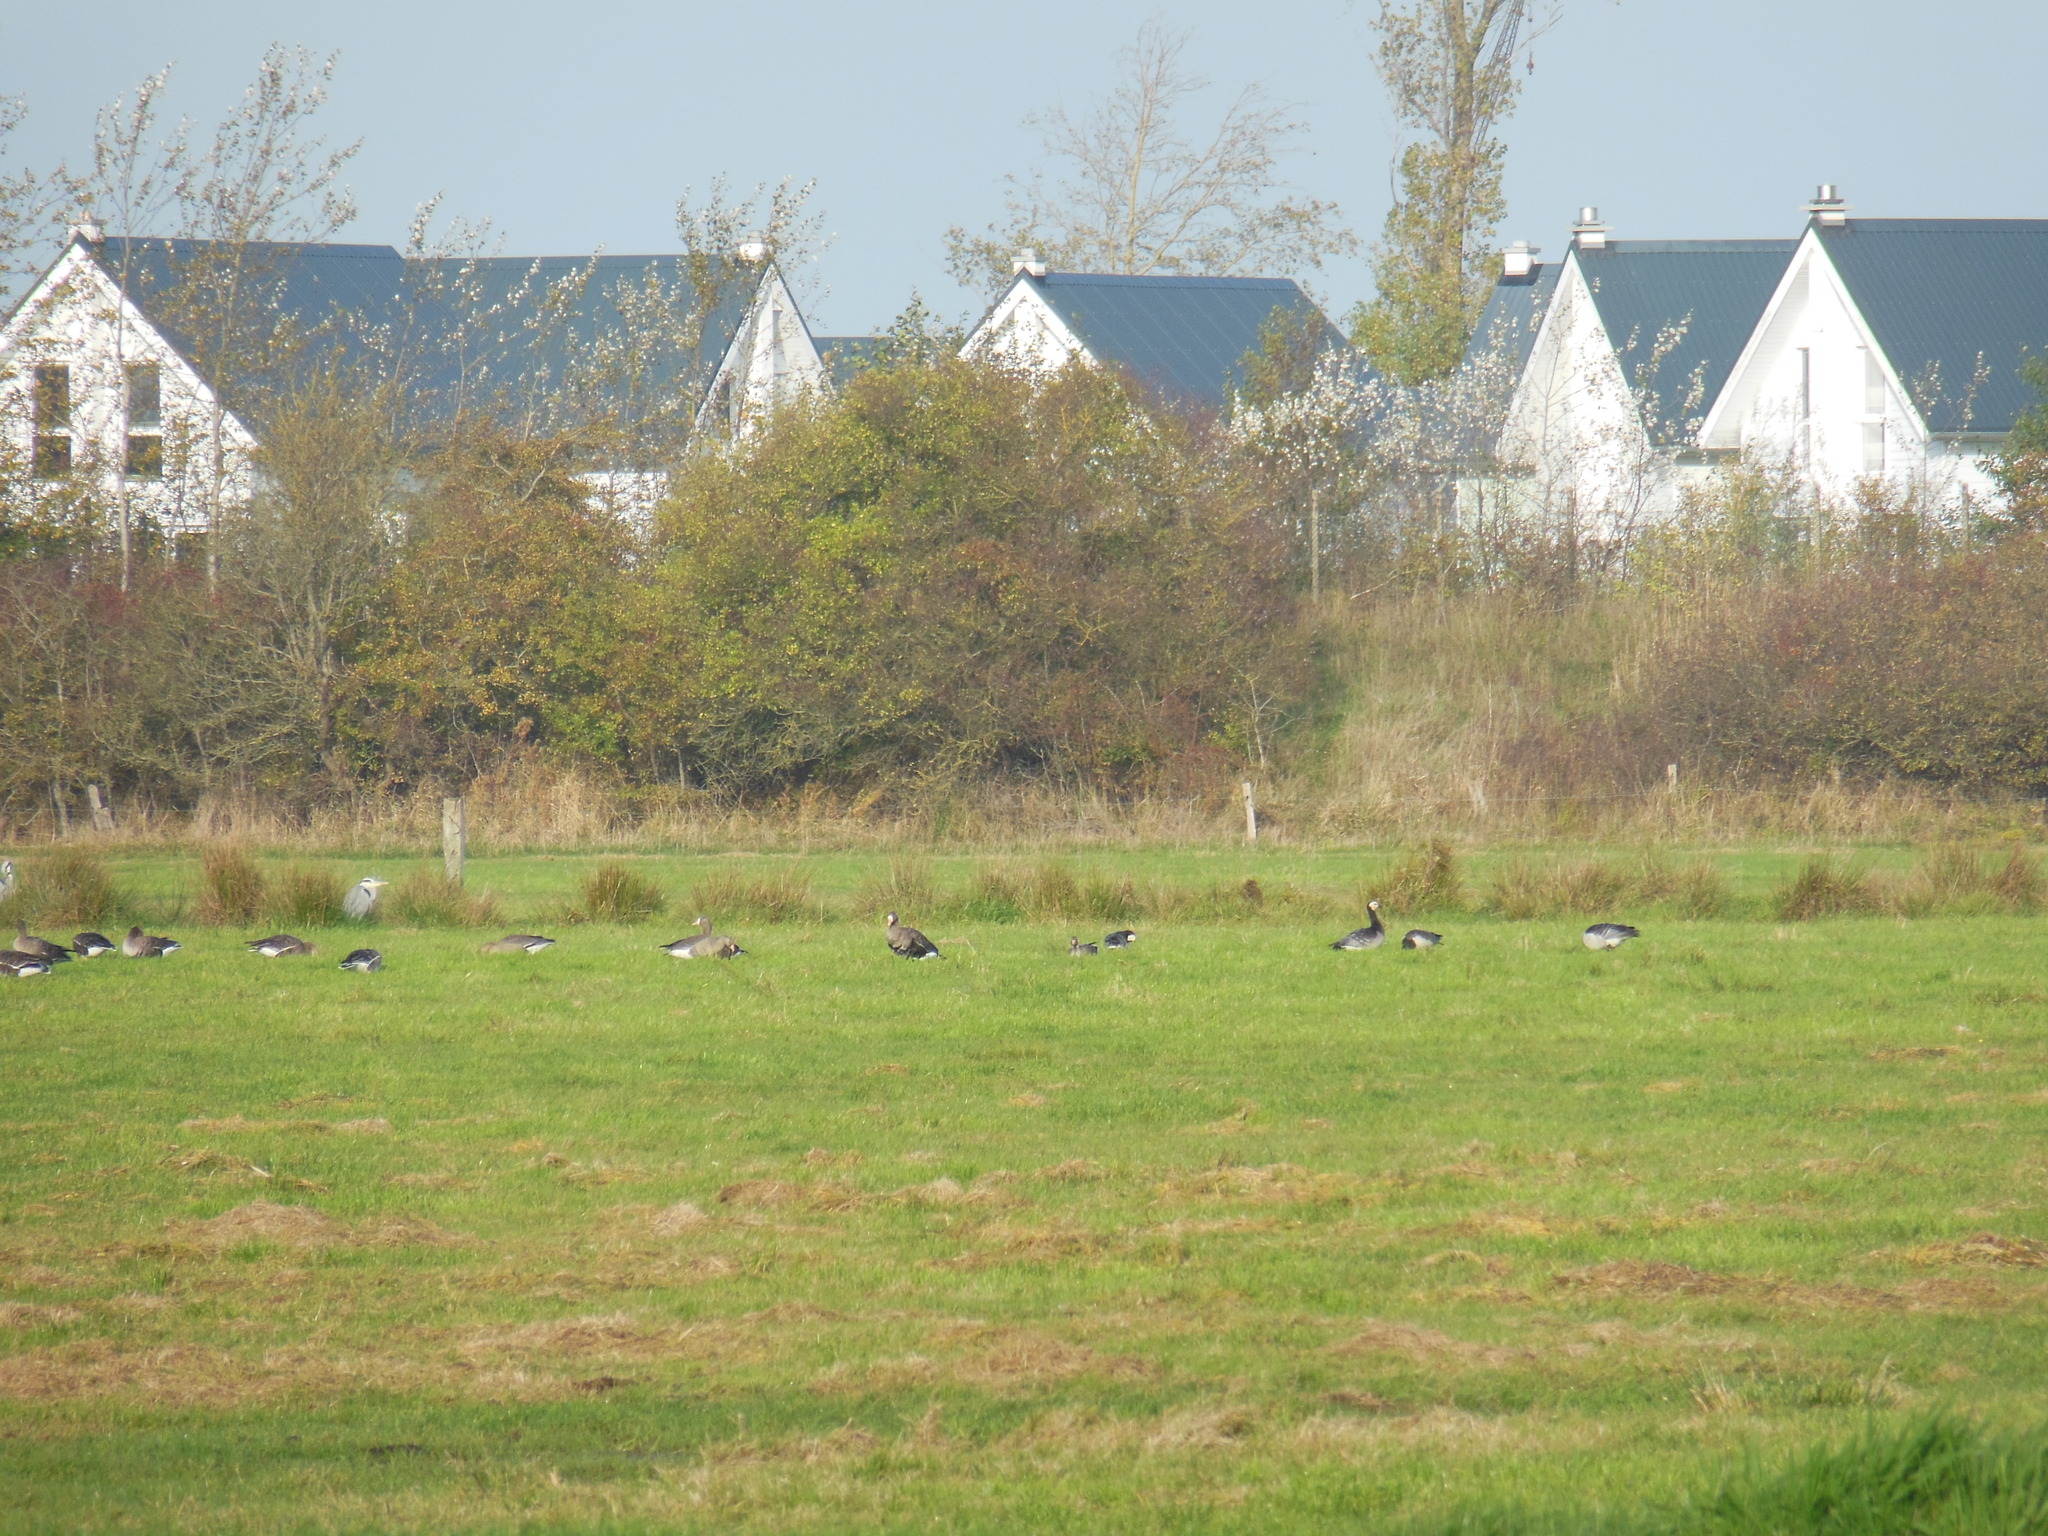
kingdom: Animalia
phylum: Chordata
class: Aves
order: Anseriformes
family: Anatidae
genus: Branta
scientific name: Branta leucopsis
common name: Barnacle goose
